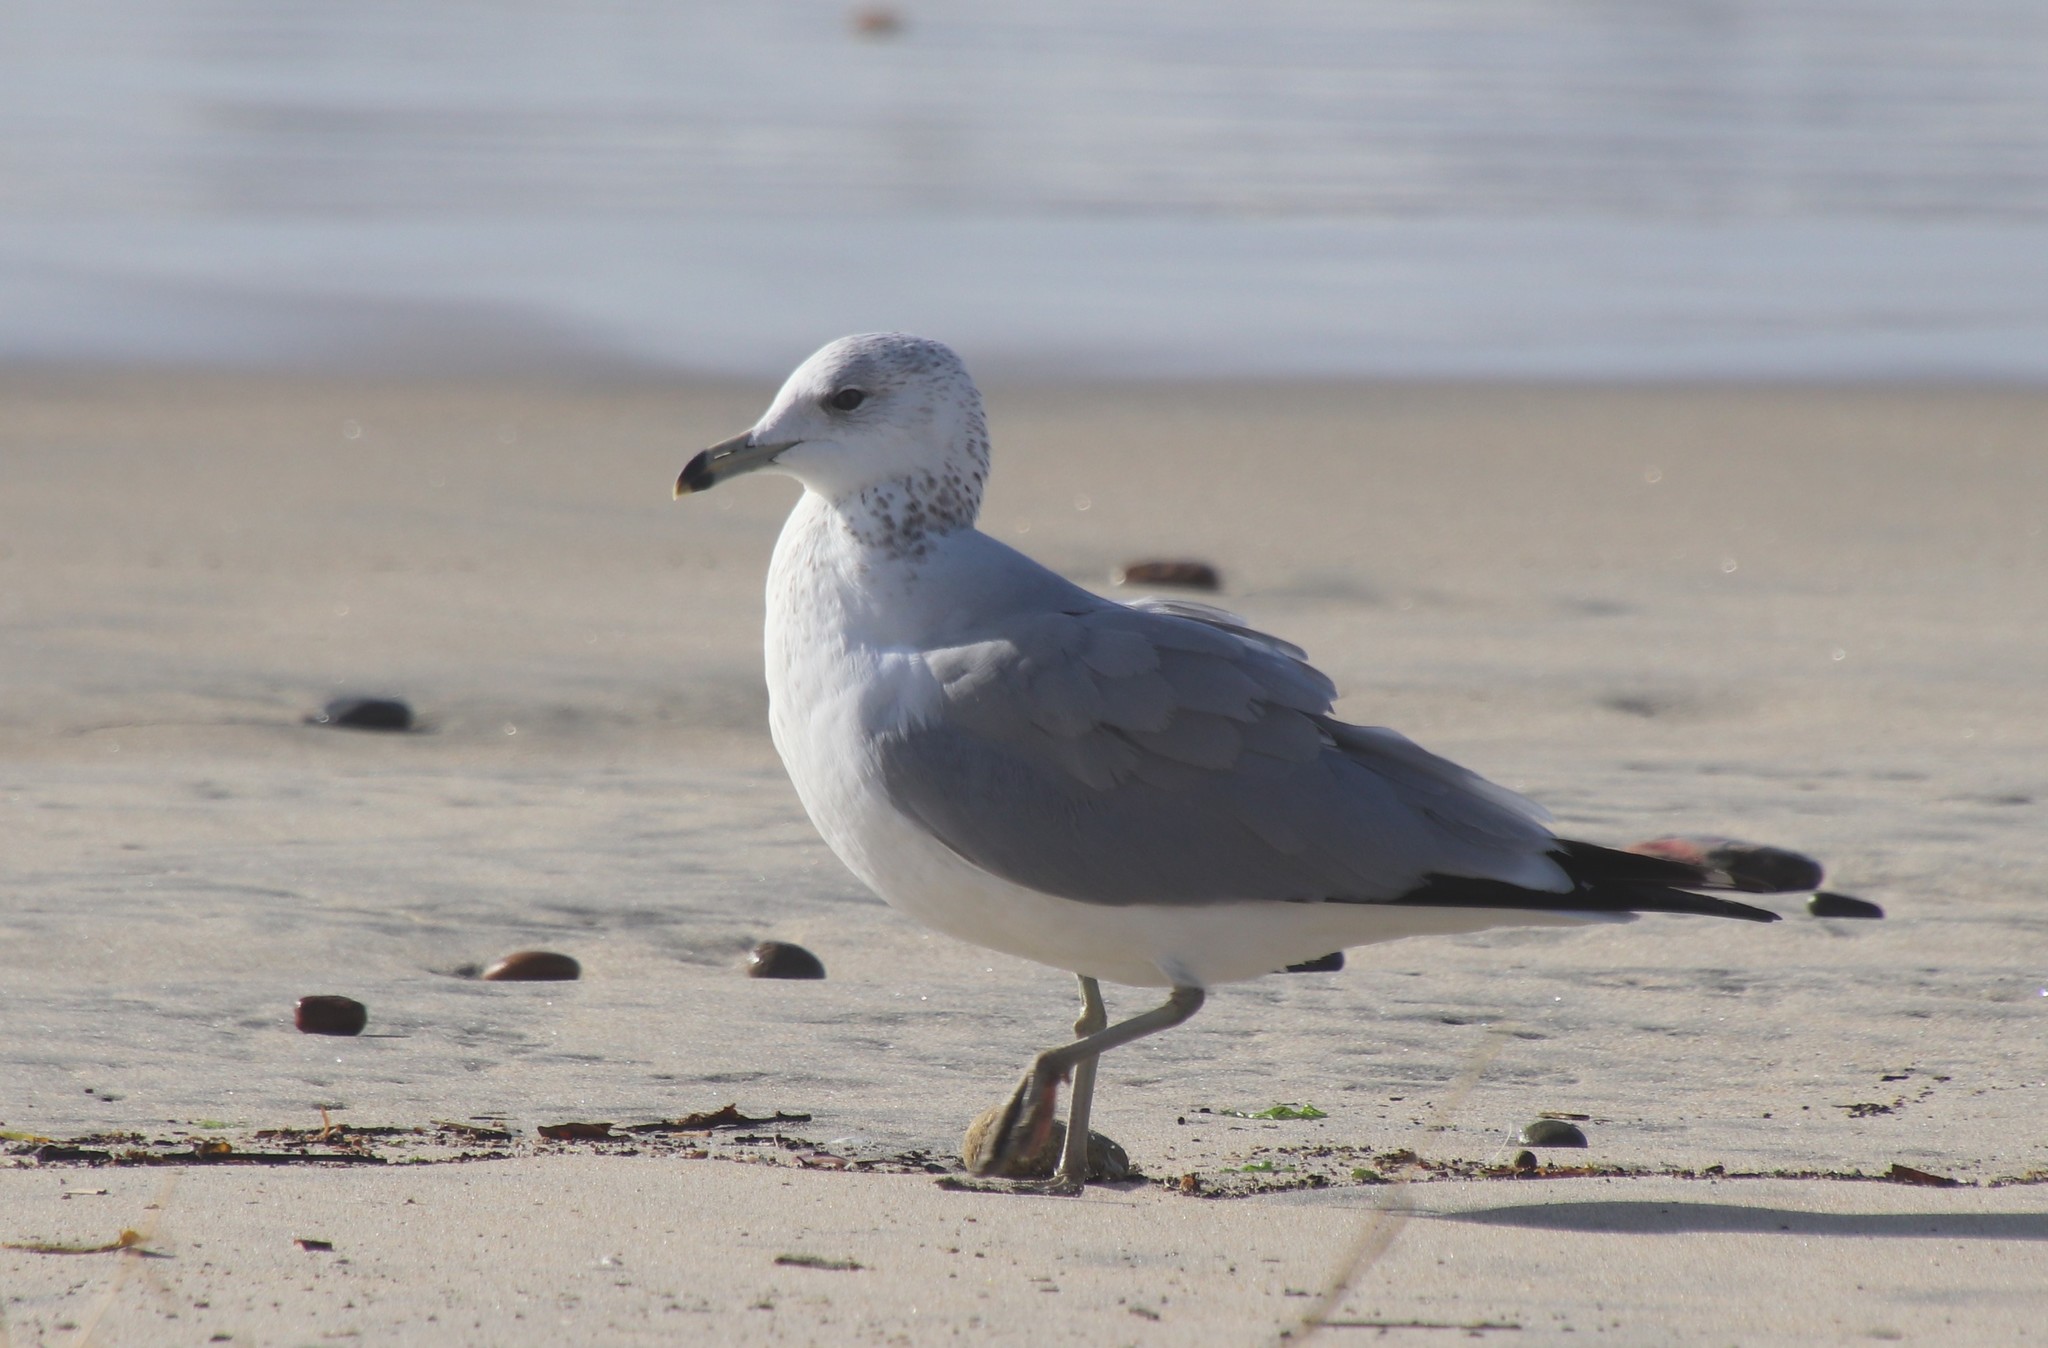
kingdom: Animalia
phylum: Chordata
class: Aves
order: Charadriiformes
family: Laridae
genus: Larus
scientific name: Larus delawarensis
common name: Ring-billed gull
